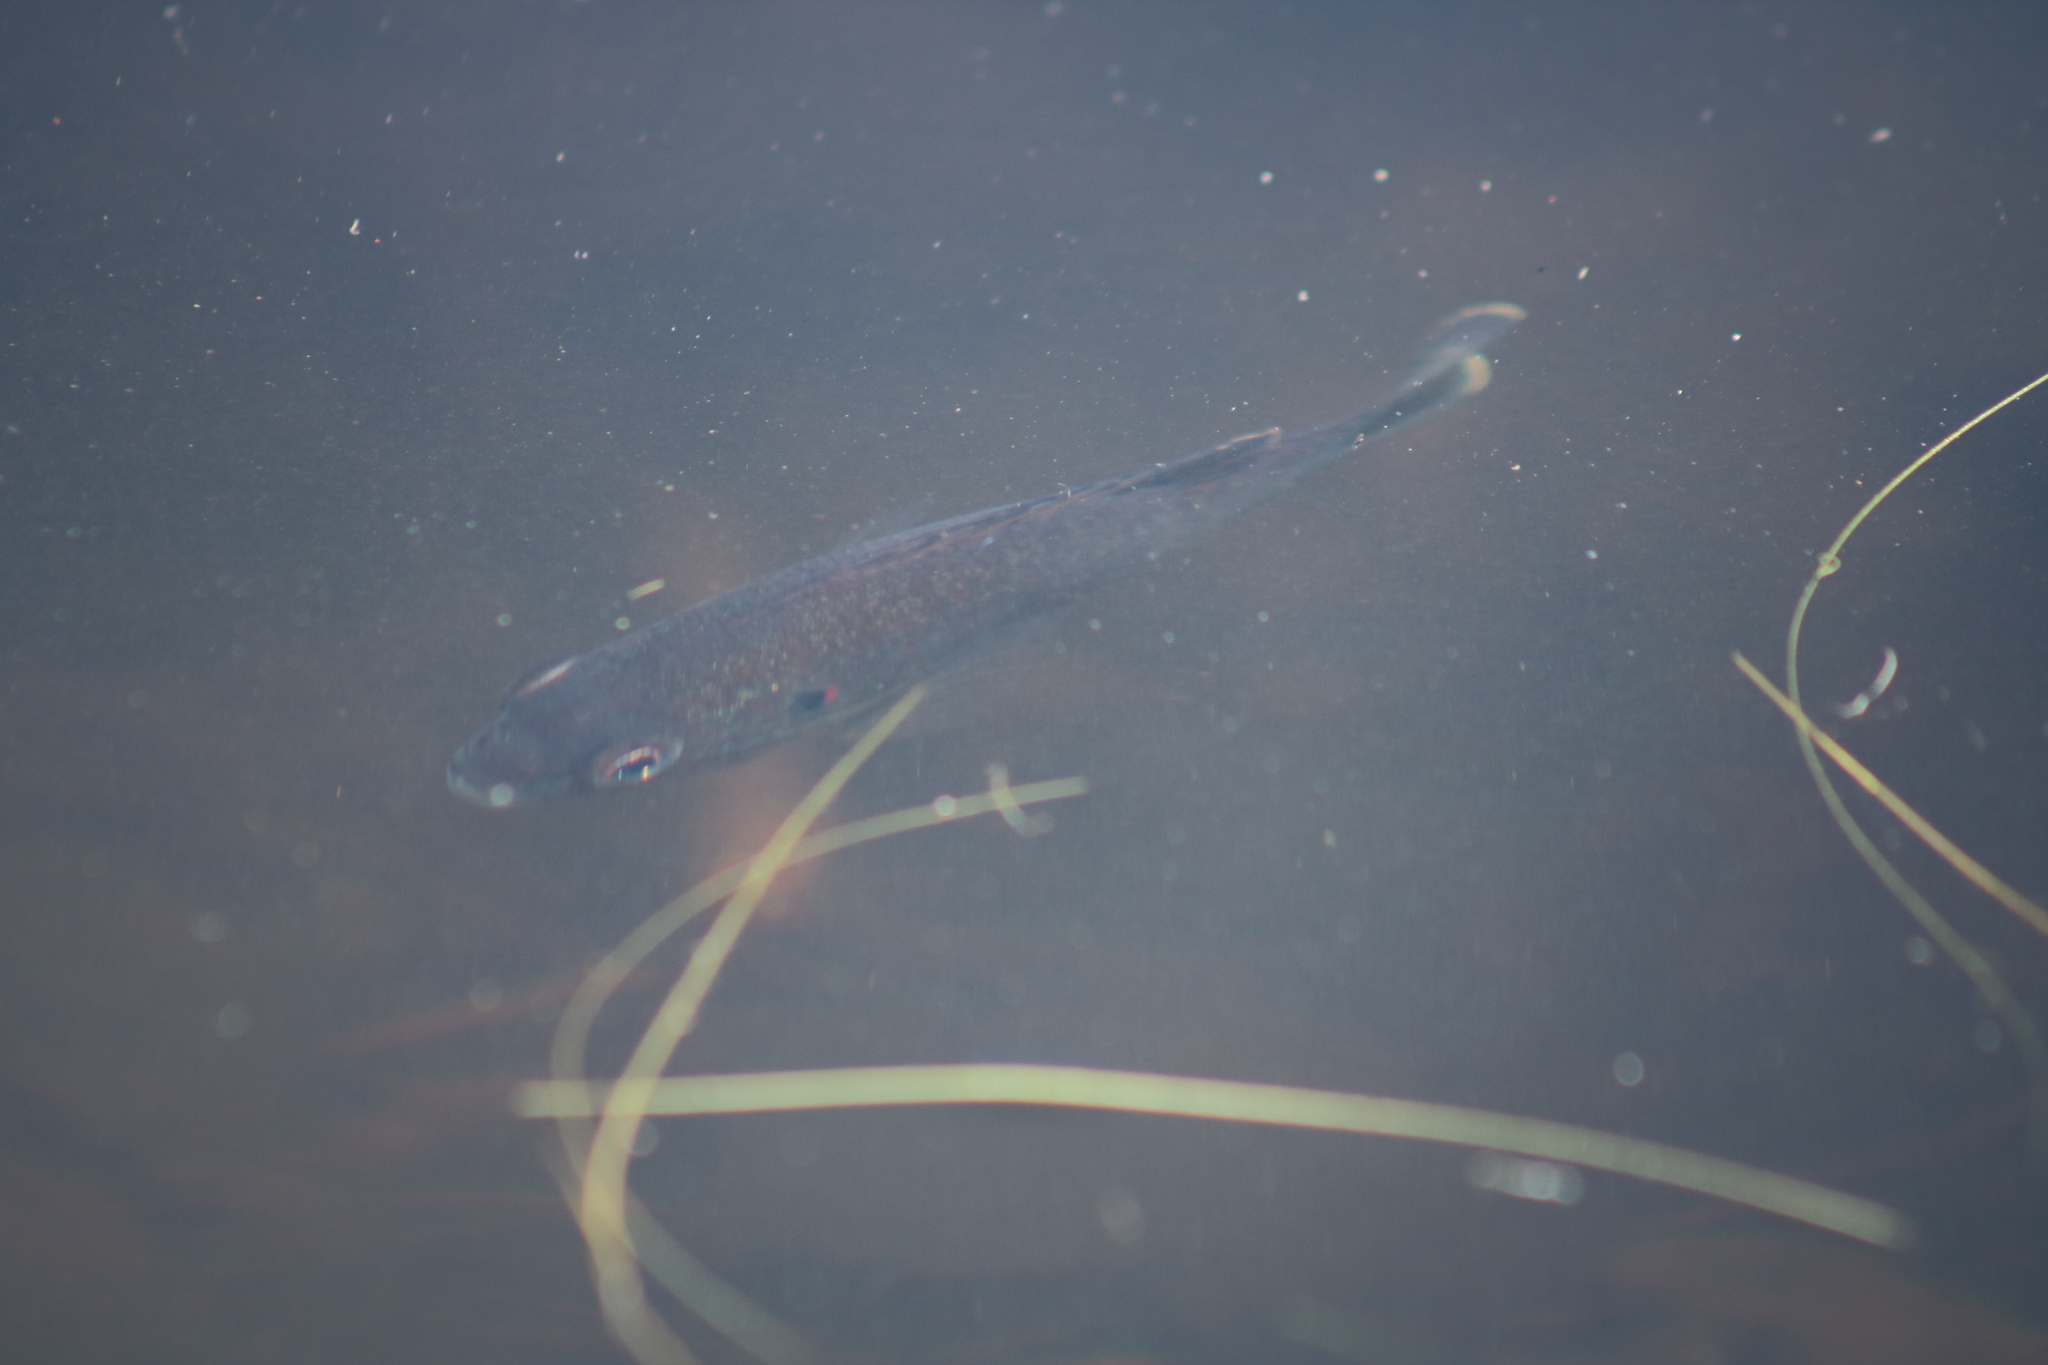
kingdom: Animalia
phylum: Chordata
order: Perciformes
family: Centrarchidae
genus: Lepomis
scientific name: Lepomis gibbosus
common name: Pumpkinseed
